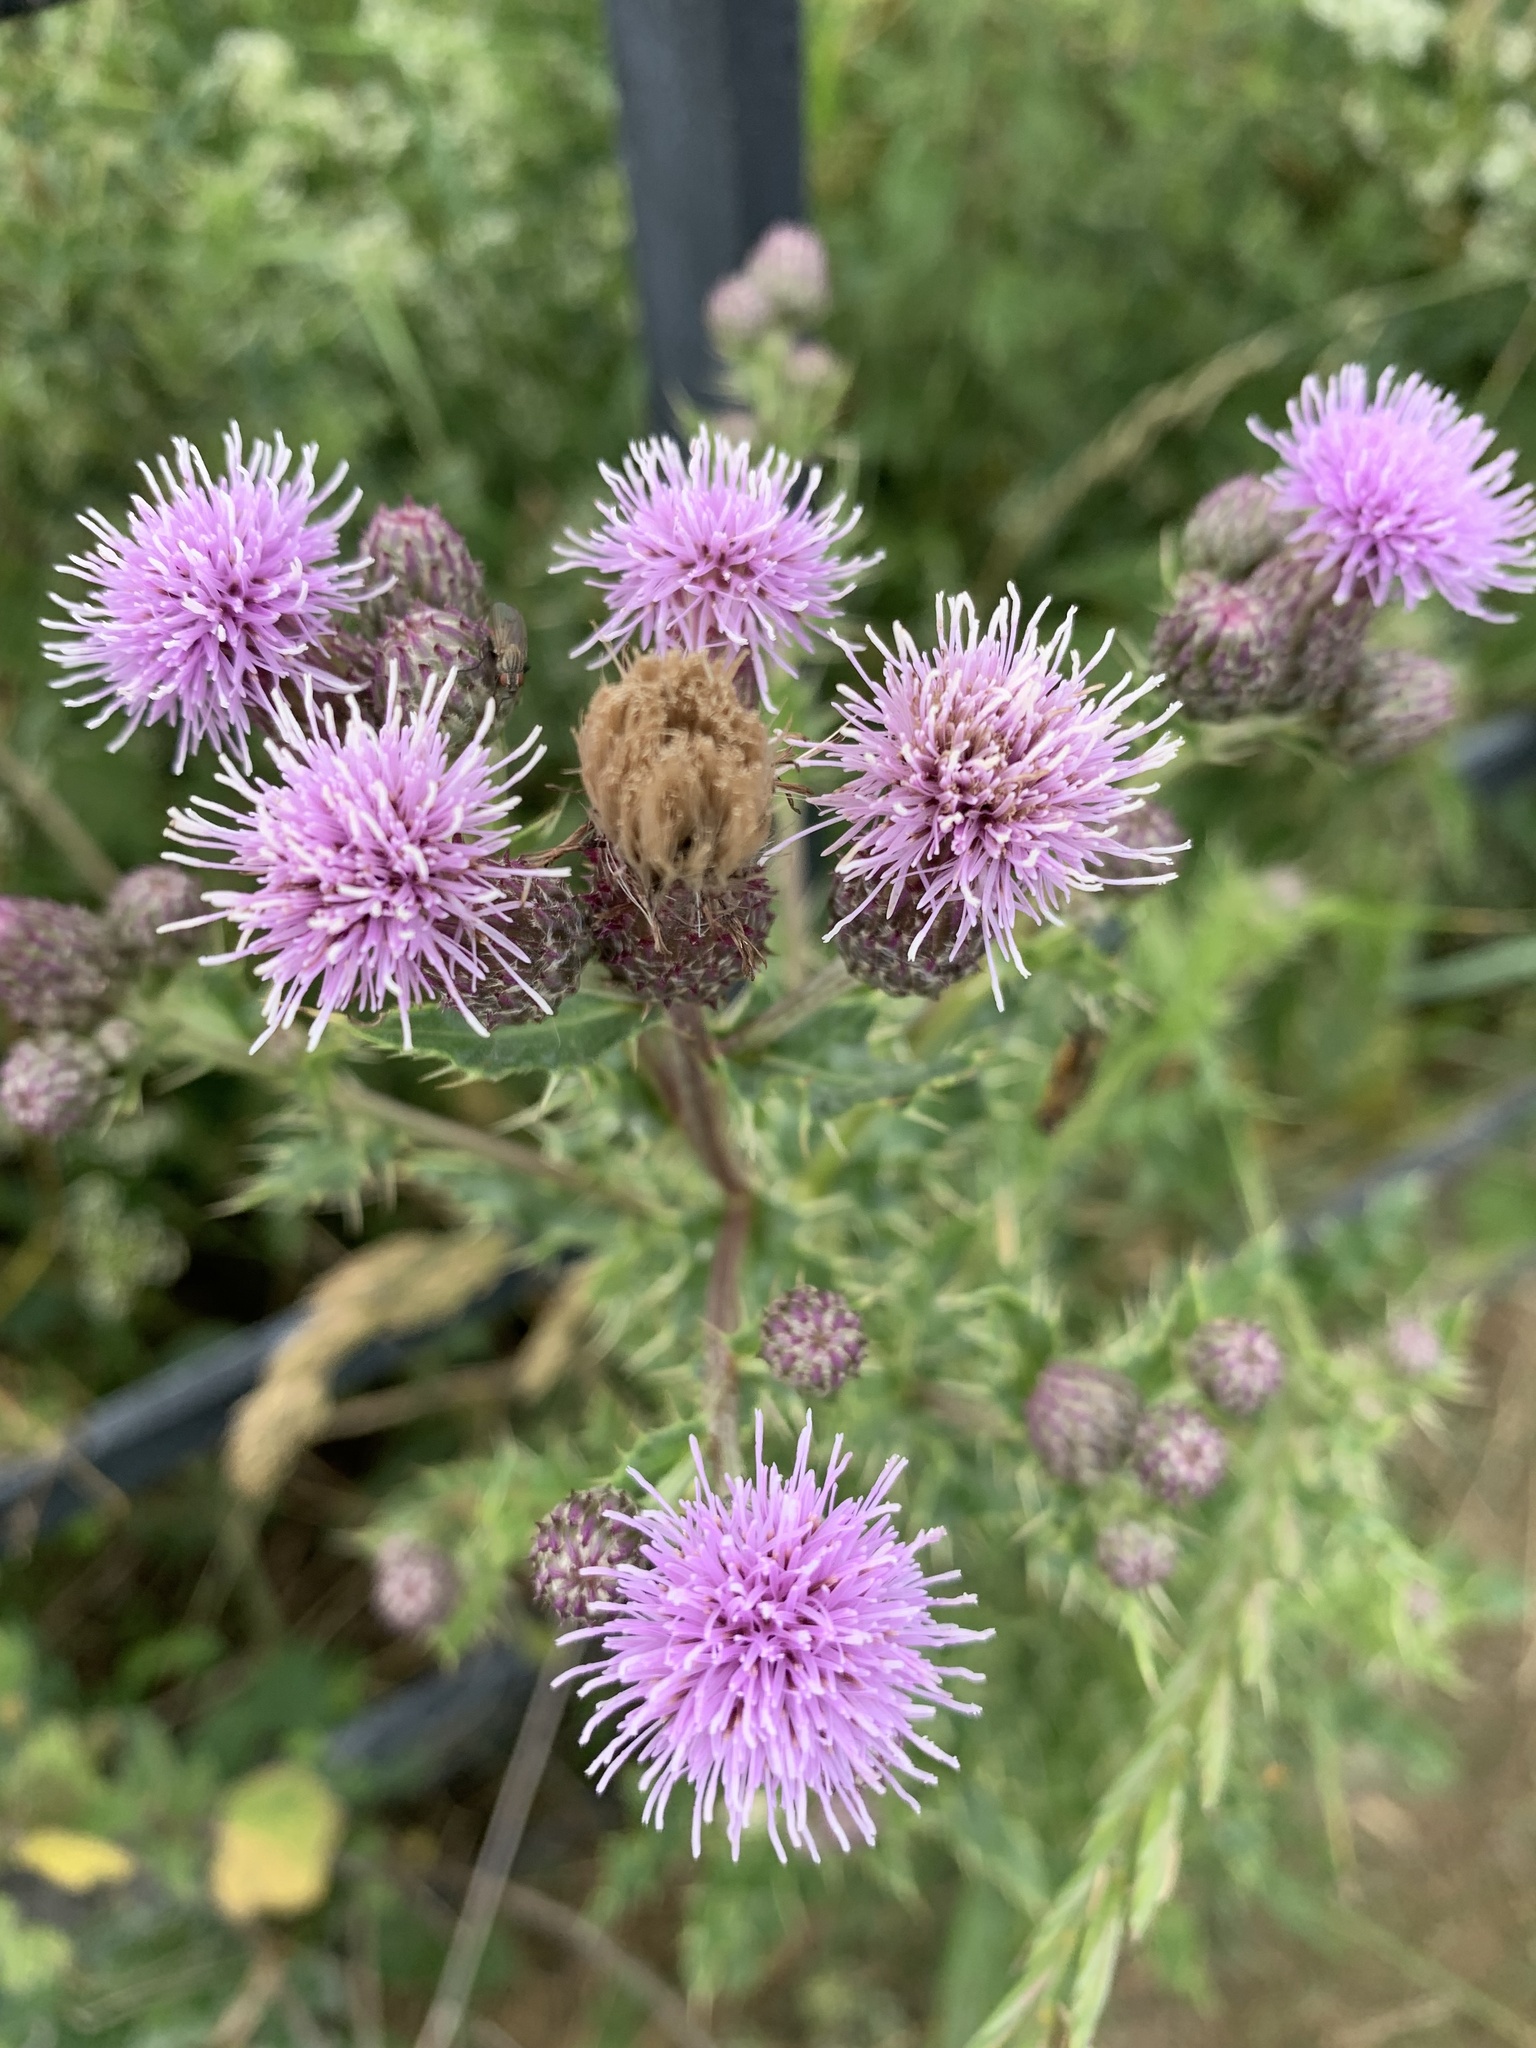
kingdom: Plantae
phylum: Tracheophyta
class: Magnoliopsida
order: Asterales
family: Asteraceae
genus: Cirsium
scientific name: Cirsium arvense
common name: Creeping thistle
